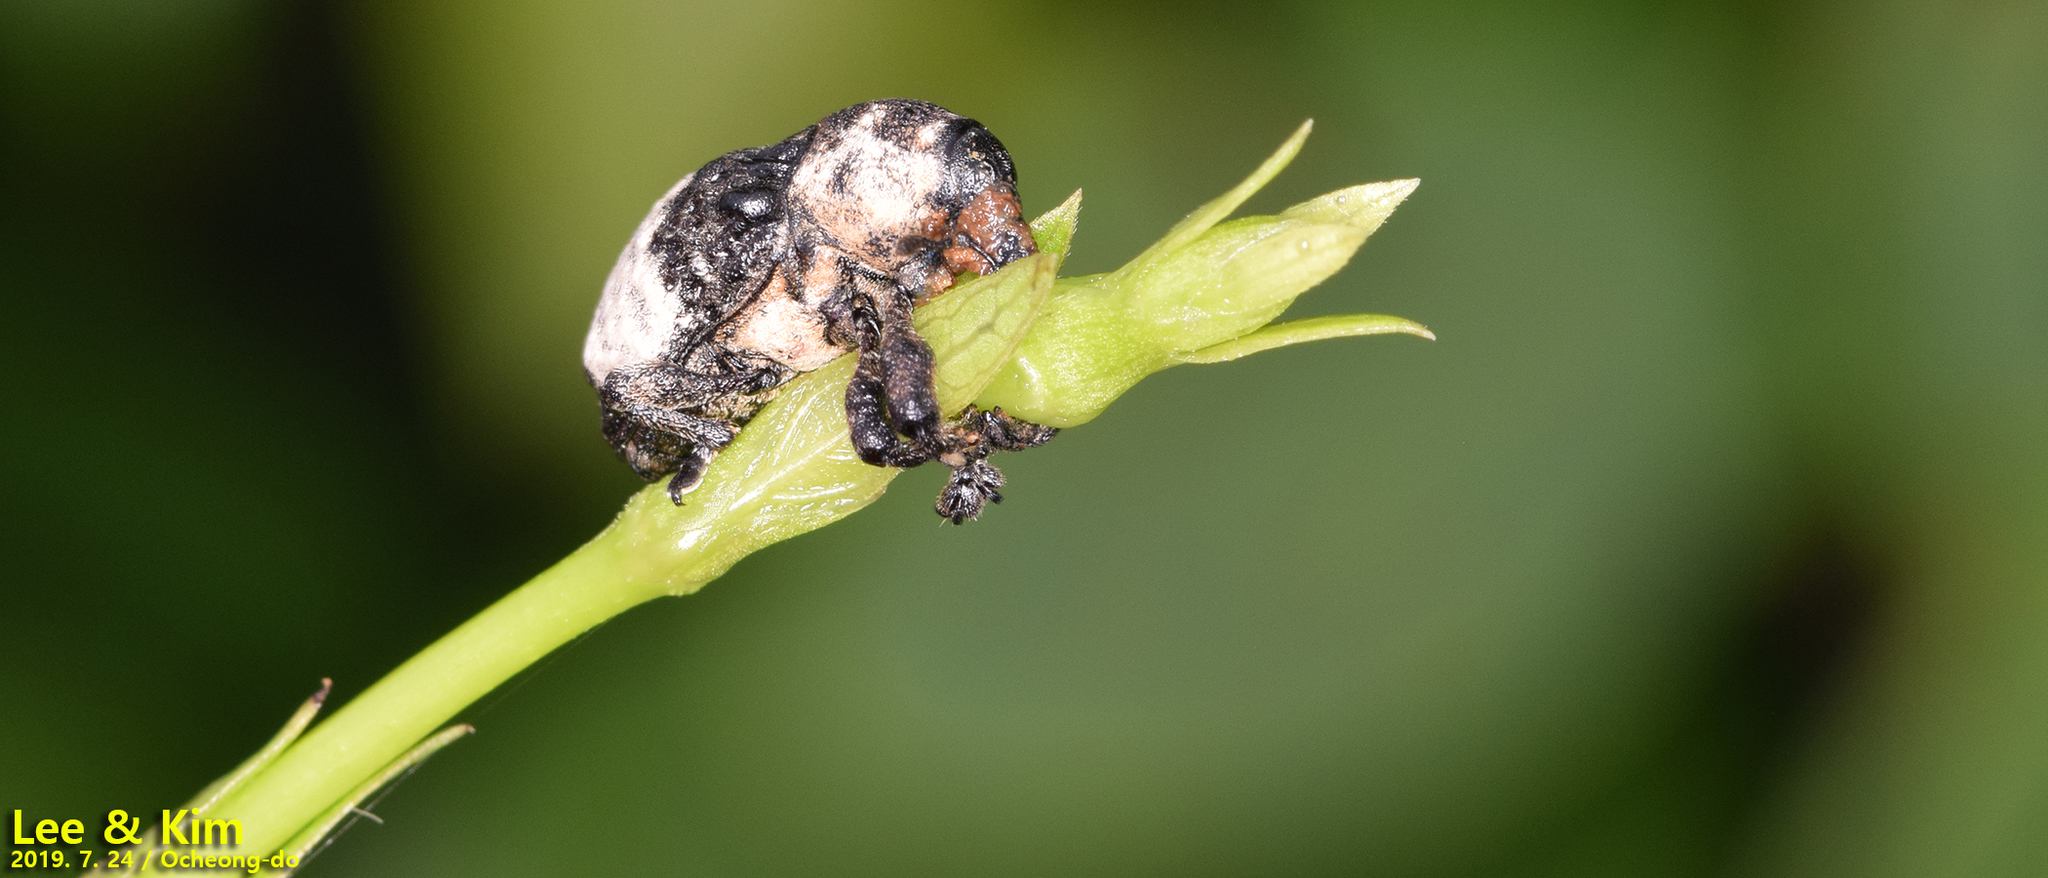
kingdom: Animalia
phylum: Arthropoda
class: Insecta
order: Coleoptera
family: Curculionidae
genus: Alcides
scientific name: Alcides trifidus
